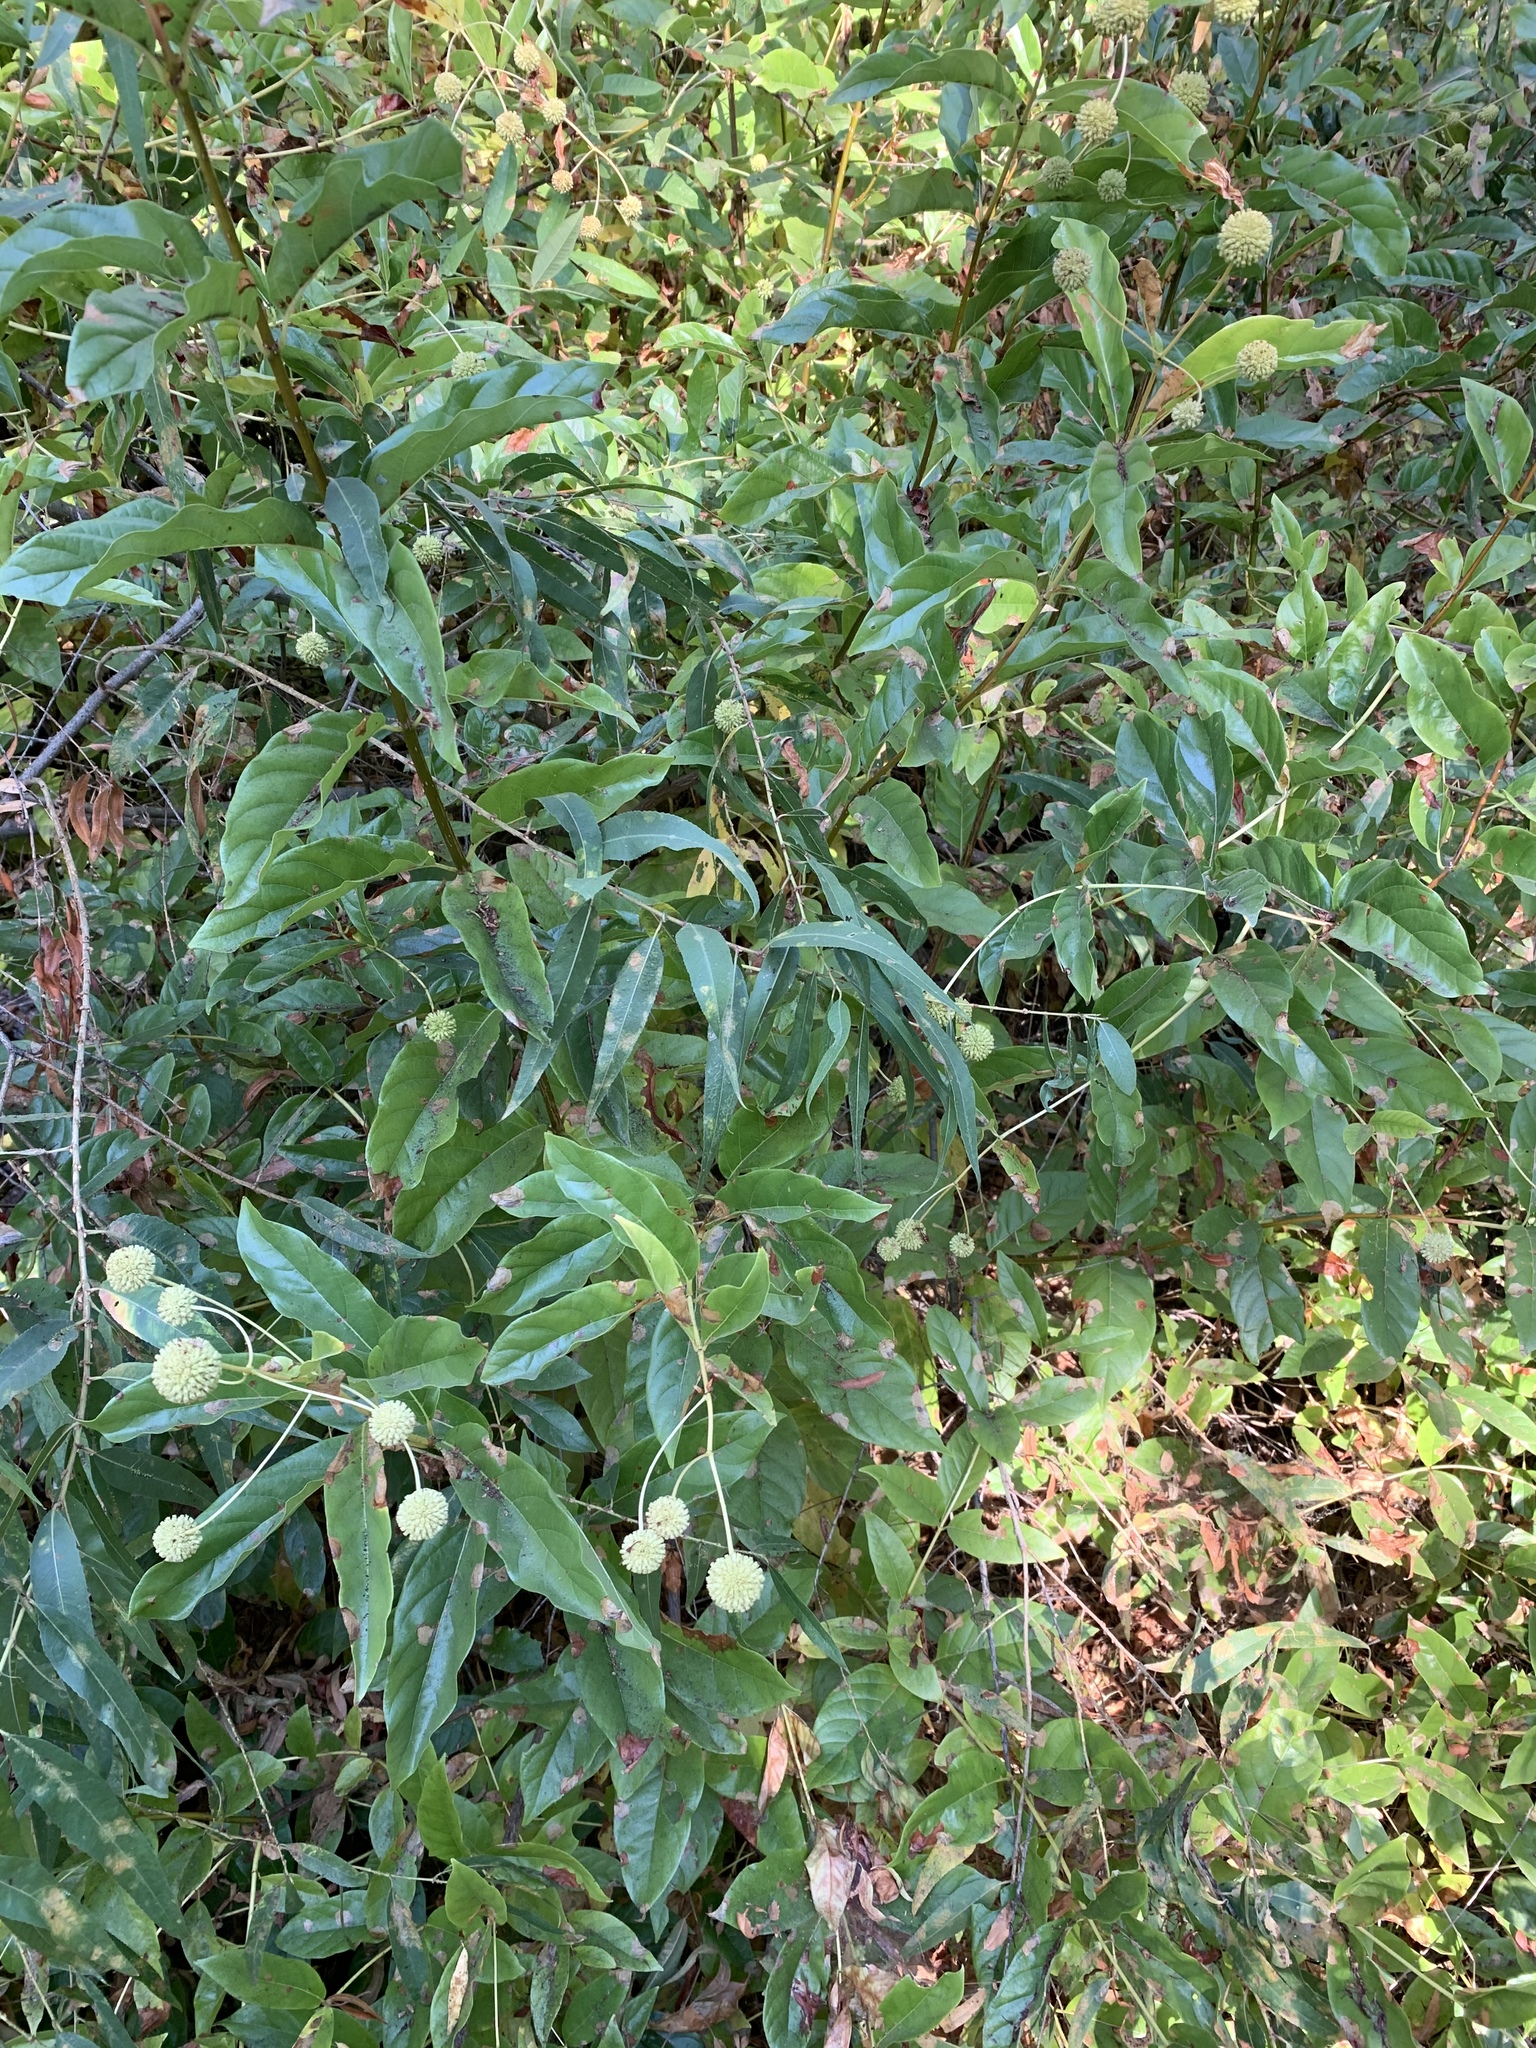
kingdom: Plantae
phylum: Tracheophyta
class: Magnoliopsida
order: Gentianales
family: Rubiaceae
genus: Cephalanthus
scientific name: Cephalanthus occidentalis
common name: Button-willow
